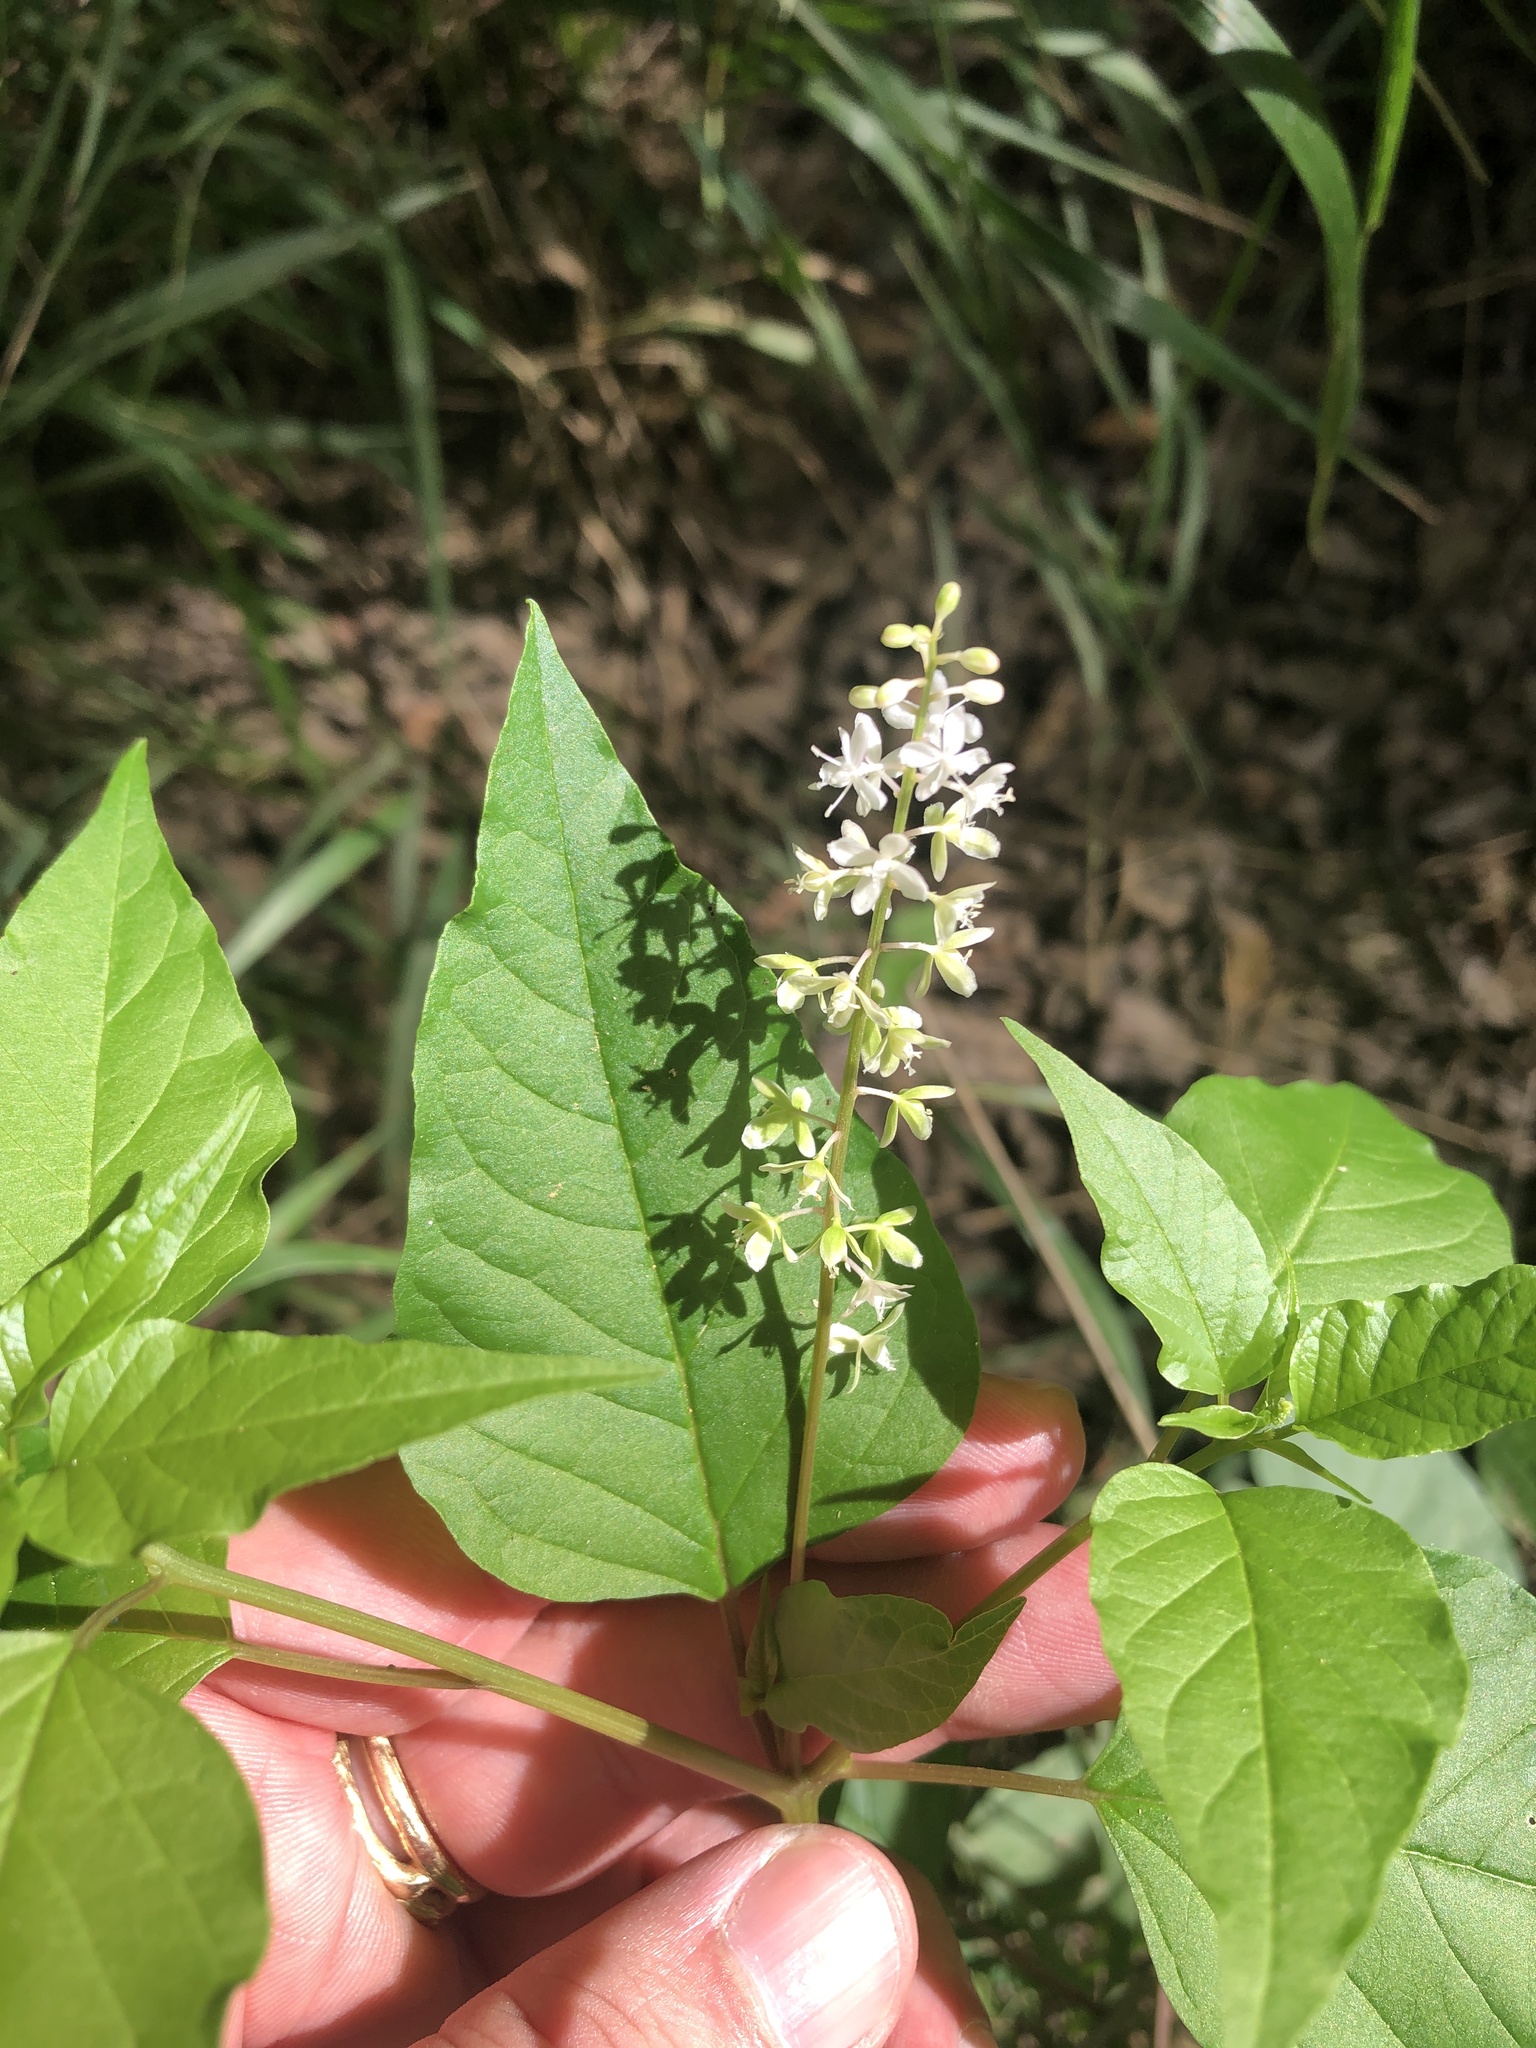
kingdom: Plantae
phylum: Tracheophyta
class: Magnoliopsida
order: Caryophyllales
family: Phytolaccaceae
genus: Rivina
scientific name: Rivina humilis
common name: Rougeplant
